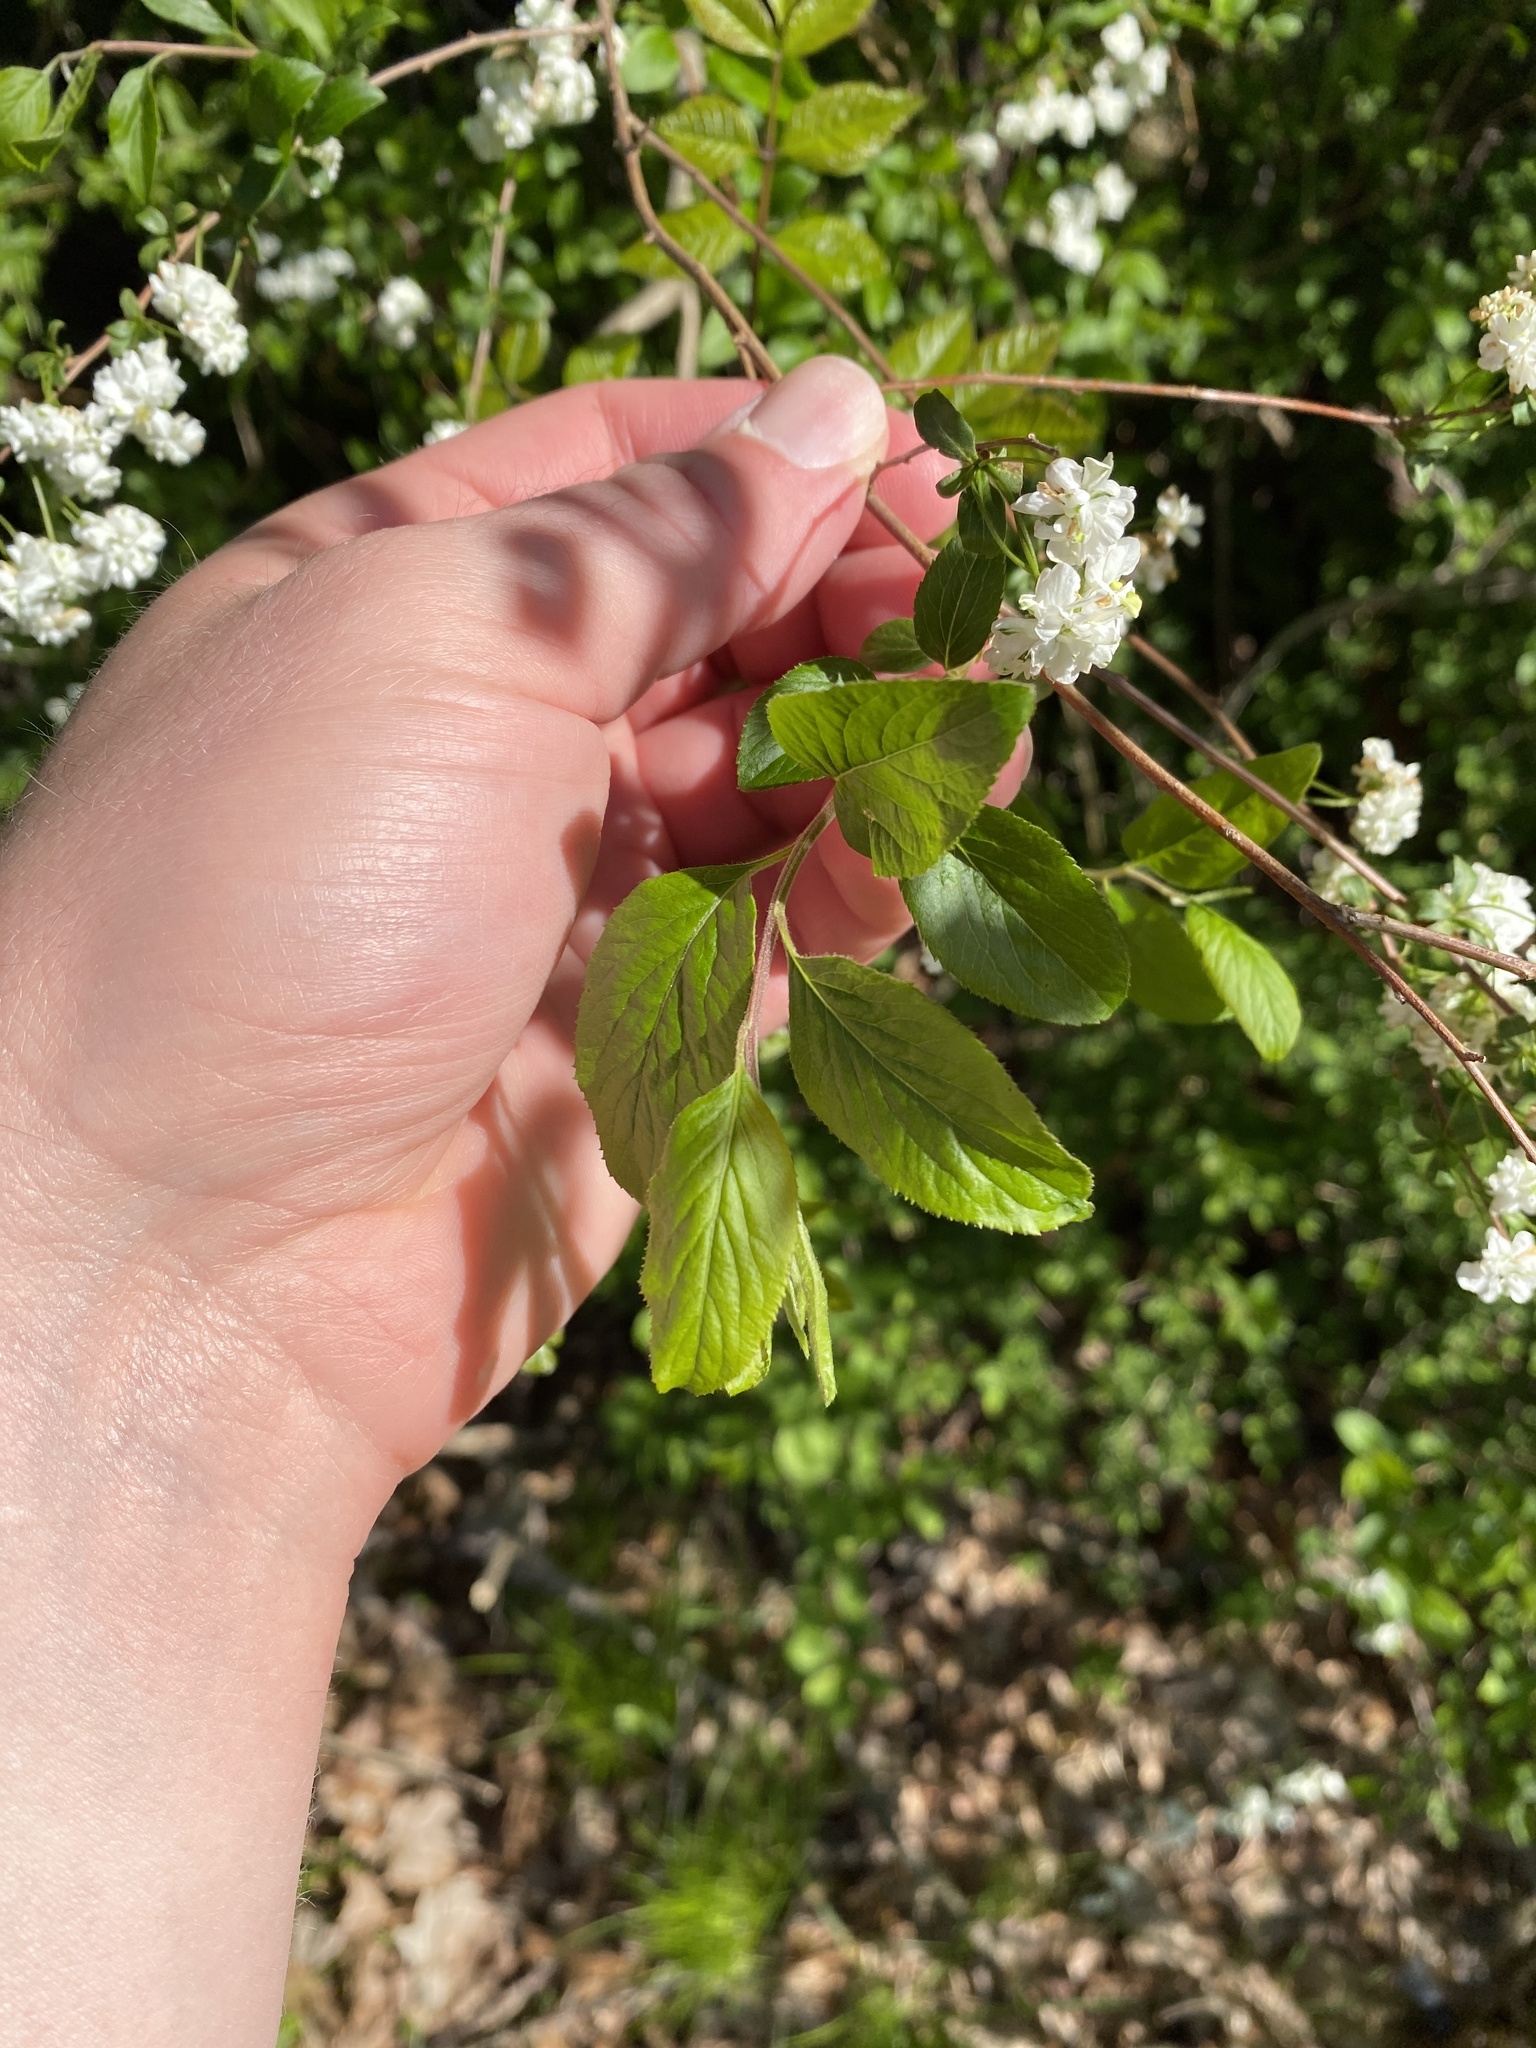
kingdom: Plantae
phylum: Tracheophyta
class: Magnoliopsida
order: Rosales
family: Rosaceae
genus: Spiraea
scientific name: Spiraea prunifolia
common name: Bridal-wreath spiraea
